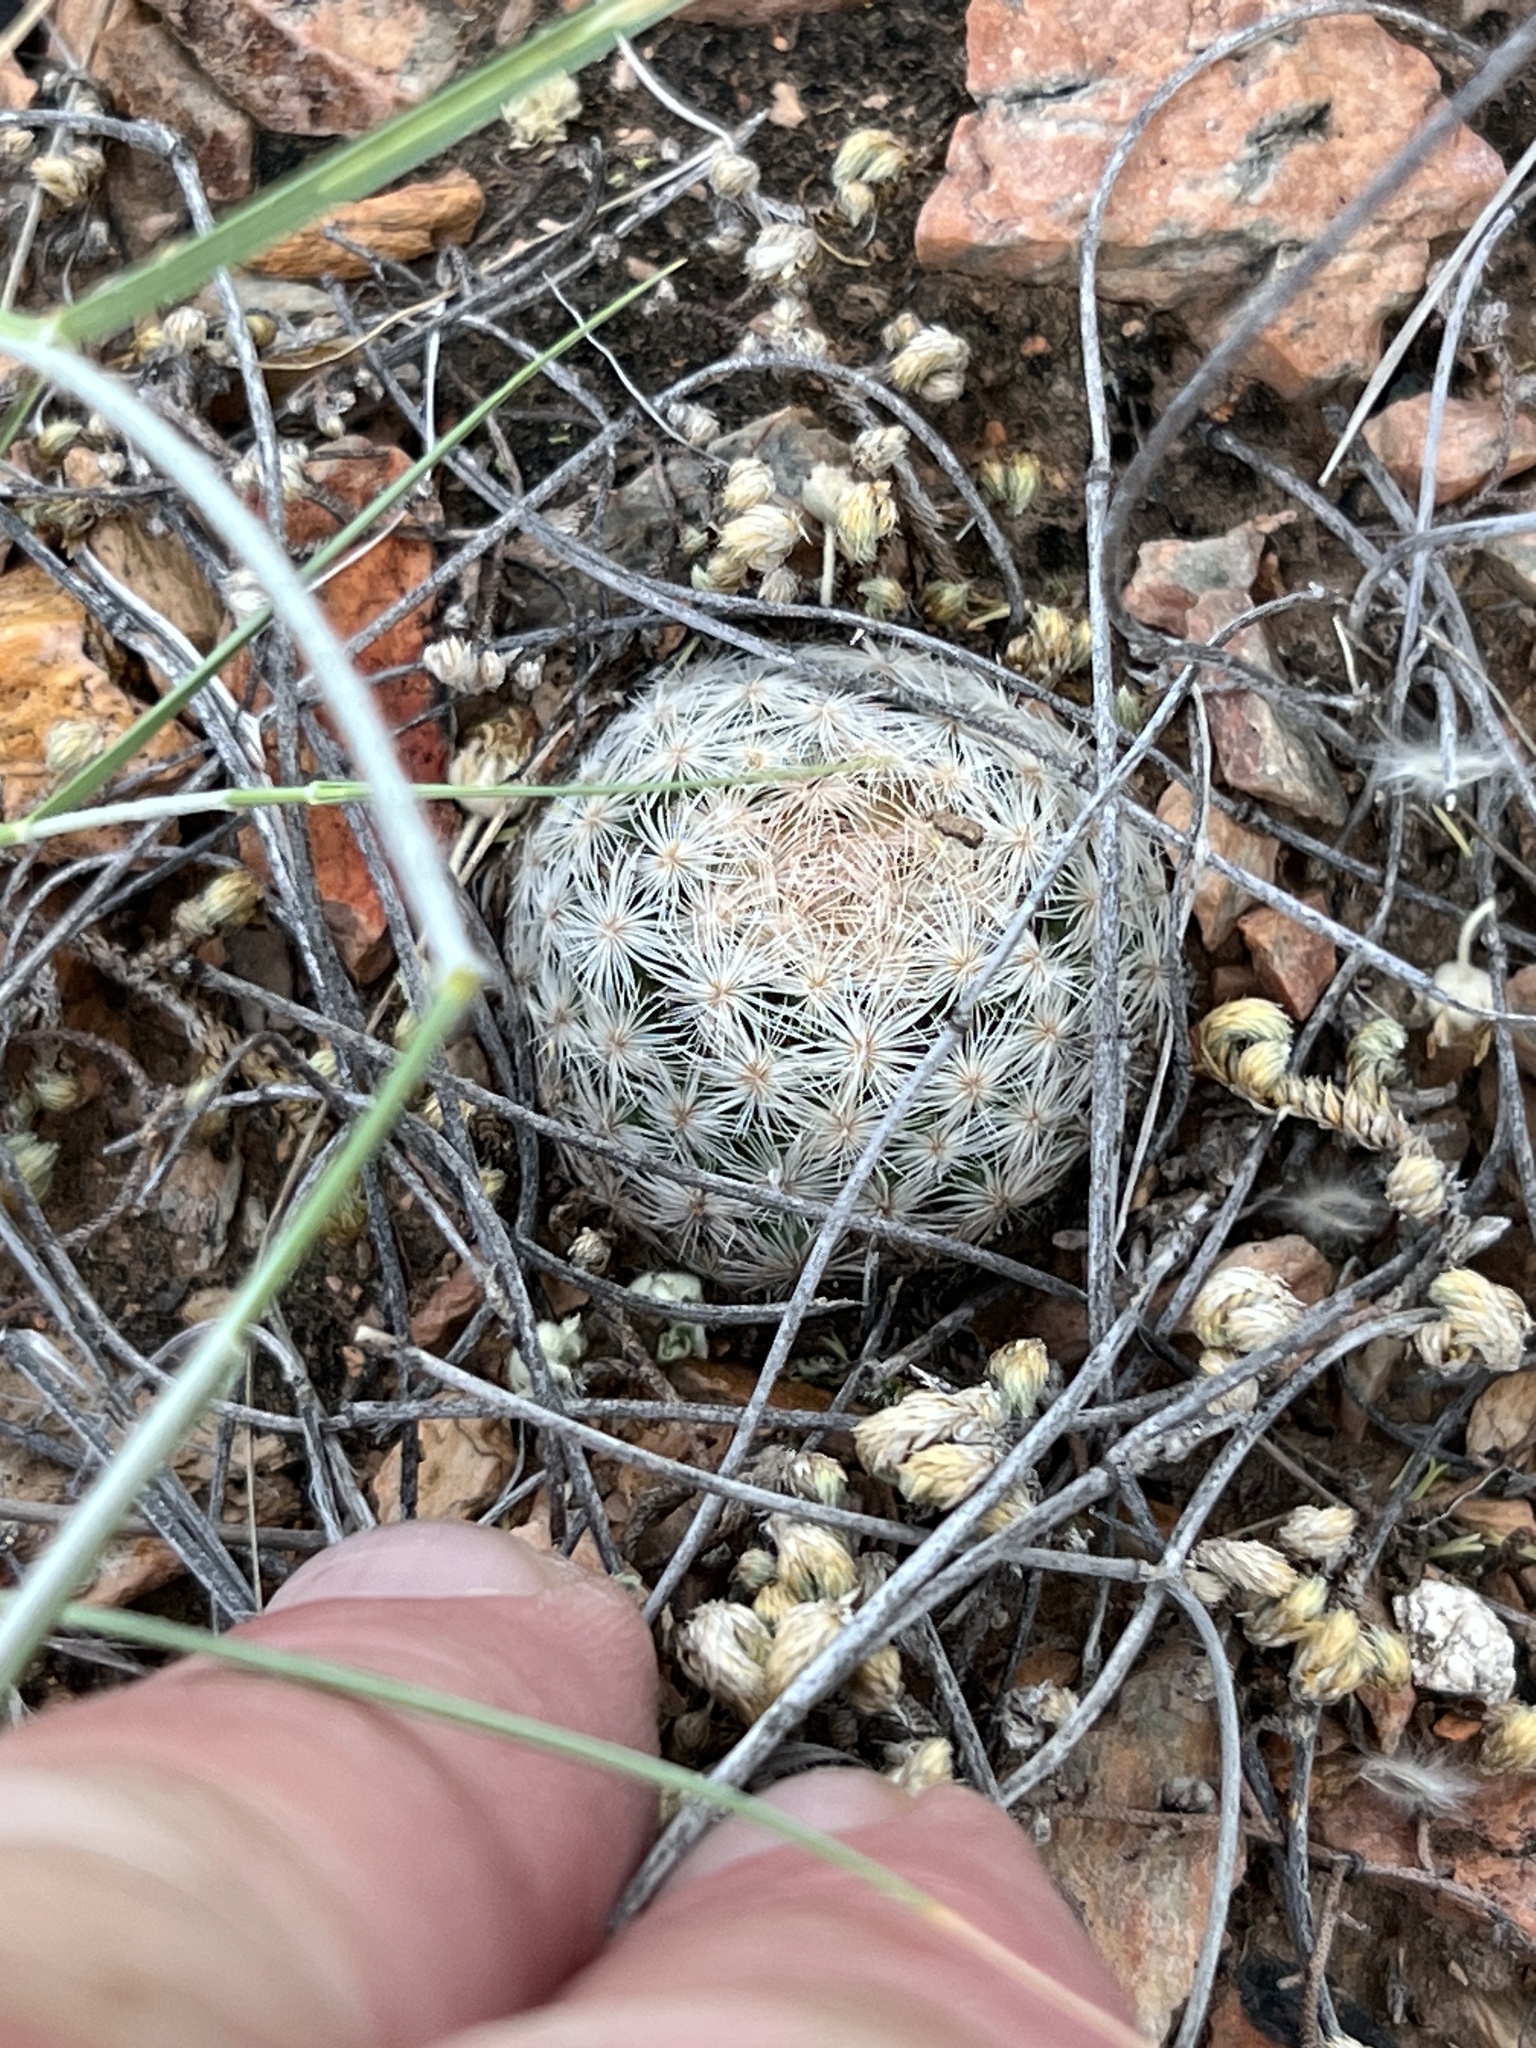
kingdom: Plantae
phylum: Tracheophyta
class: Magnoliopsida
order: Caryophyllales
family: Cactaceae
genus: Mammillaria
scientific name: Mammillaria lasiacantha
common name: Lace-spine nipple cactus
